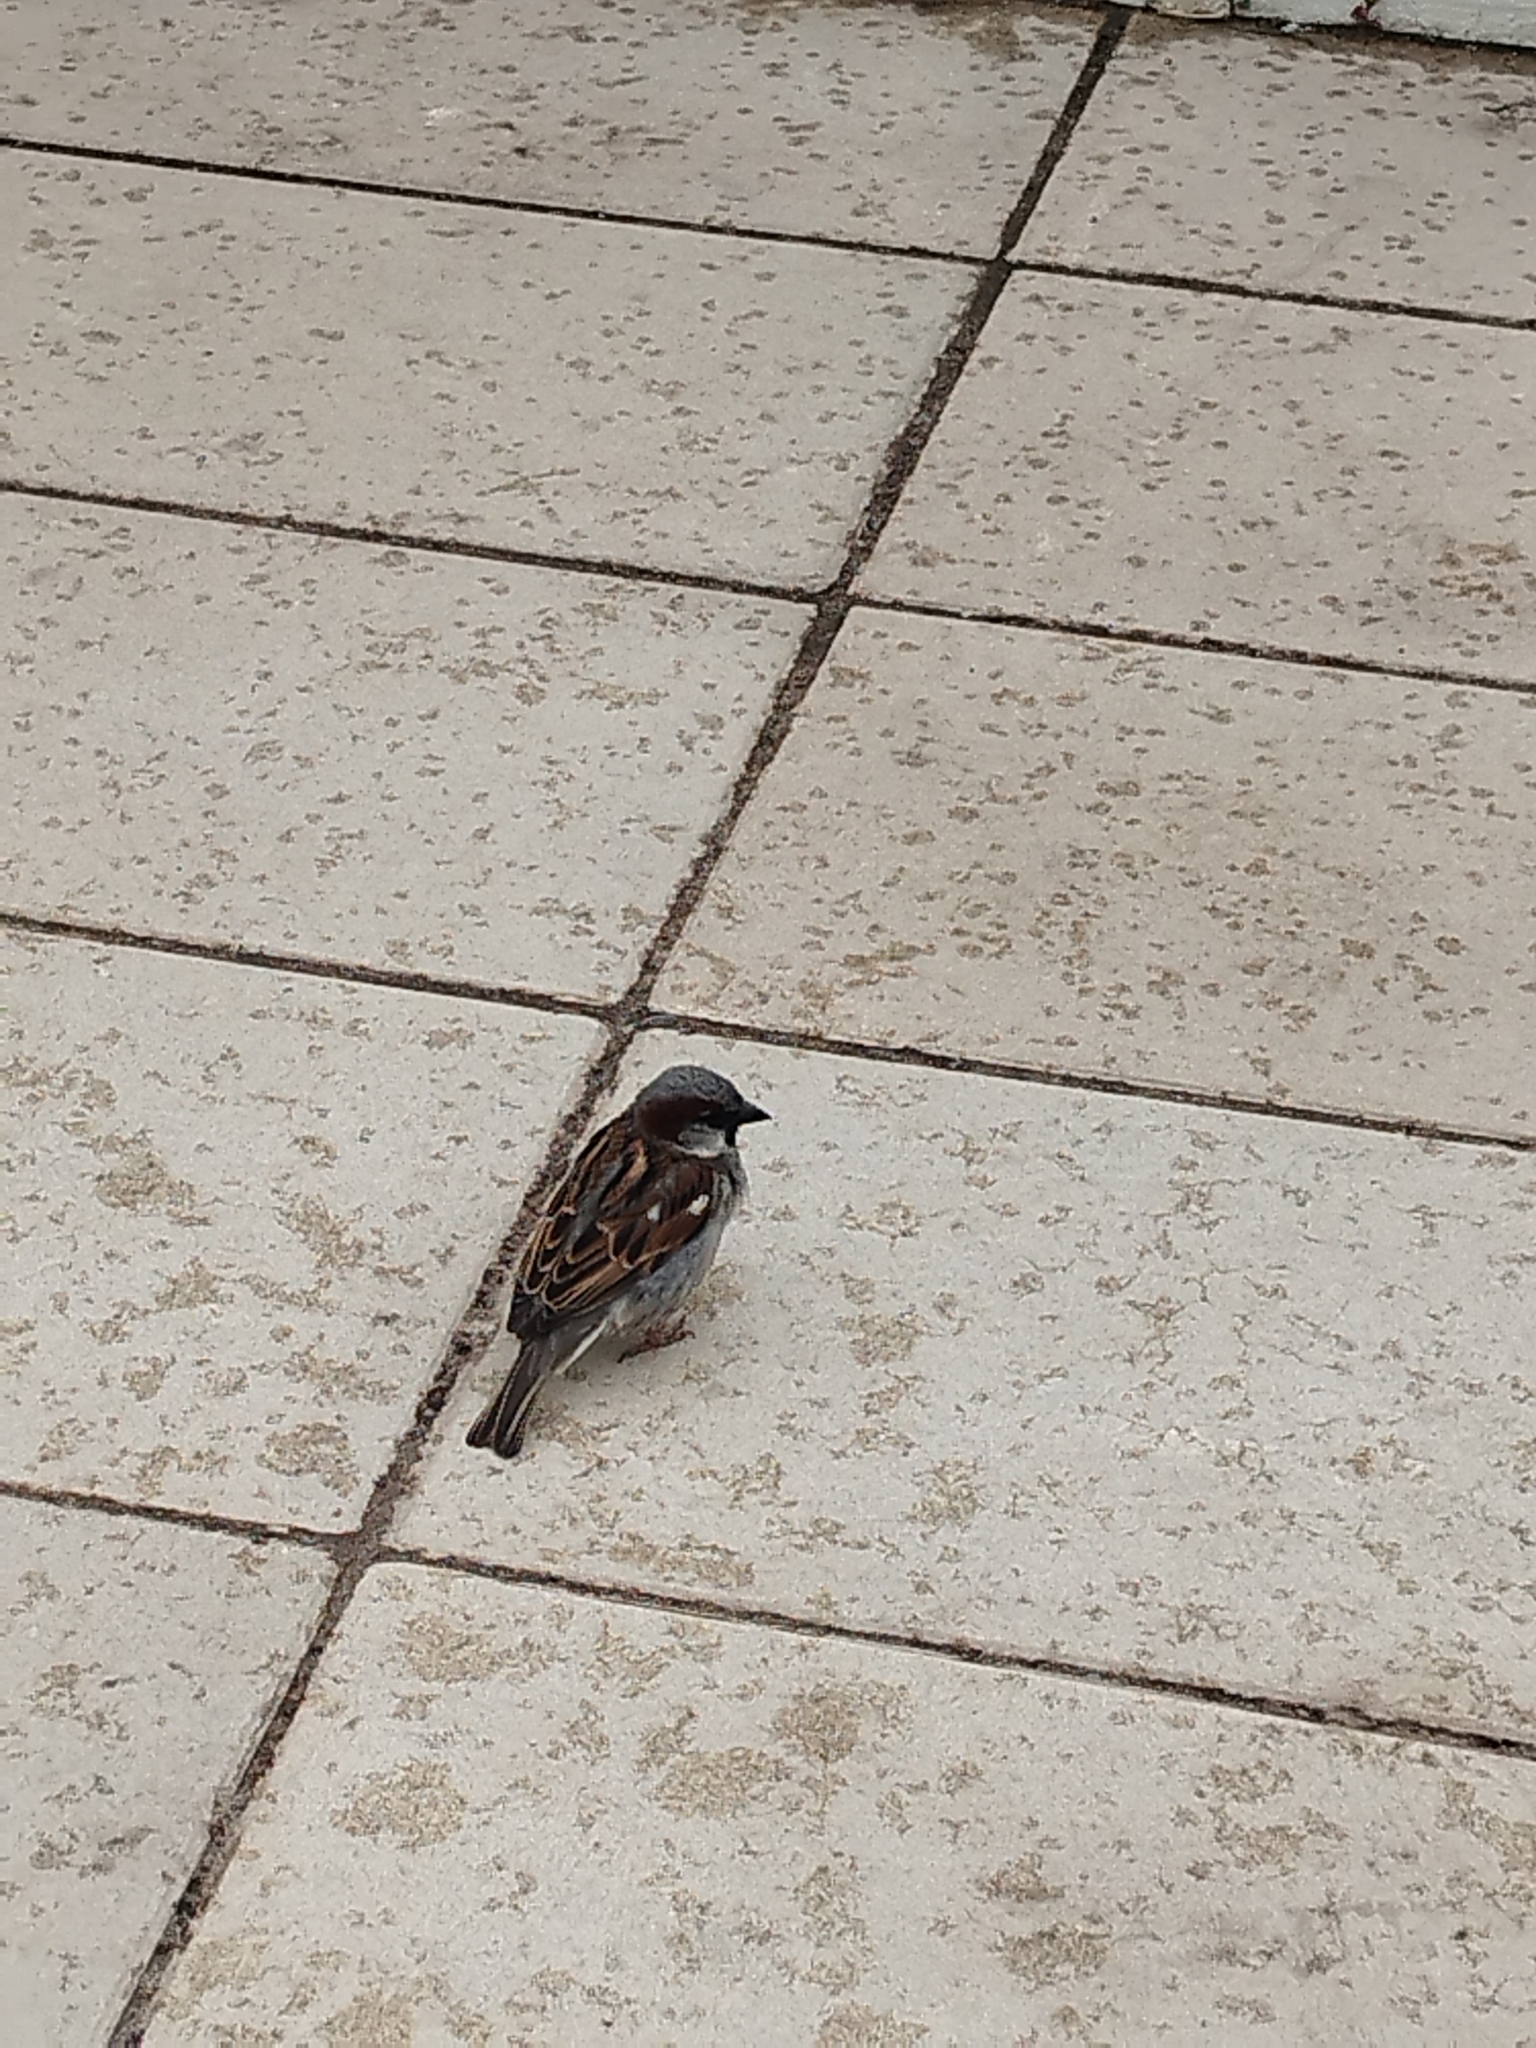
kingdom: Animalia
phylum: Chordata
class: Aves
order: Passeriformes
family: Passeridae
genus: Passer
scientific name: Passer domesticus
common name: House sparrow
